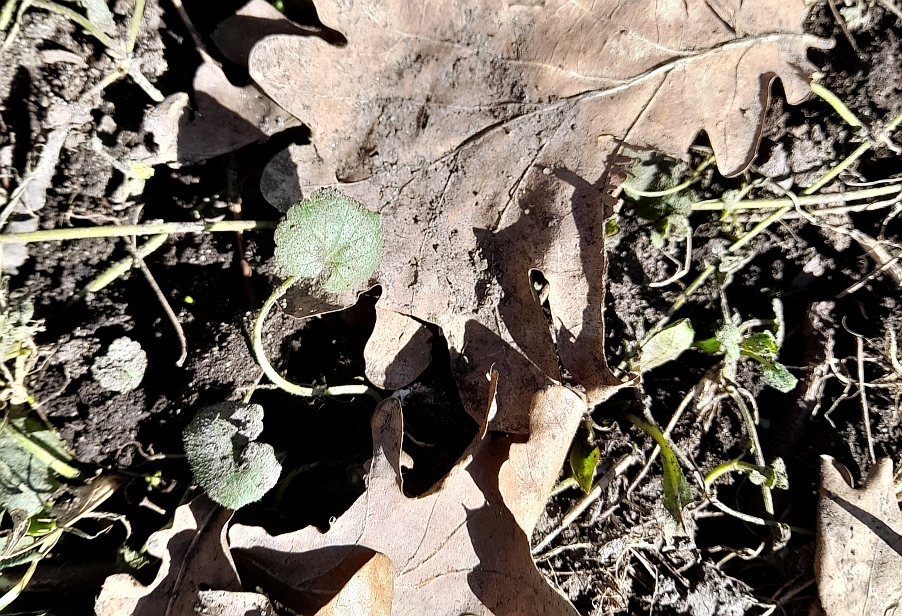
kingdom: Plantae
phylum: Tracheophyta
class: Magnoliopsida
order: Lamiales
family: Lamiaceae
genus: Glechoma
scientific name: Glechoma hederacea
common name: Ground ivy
